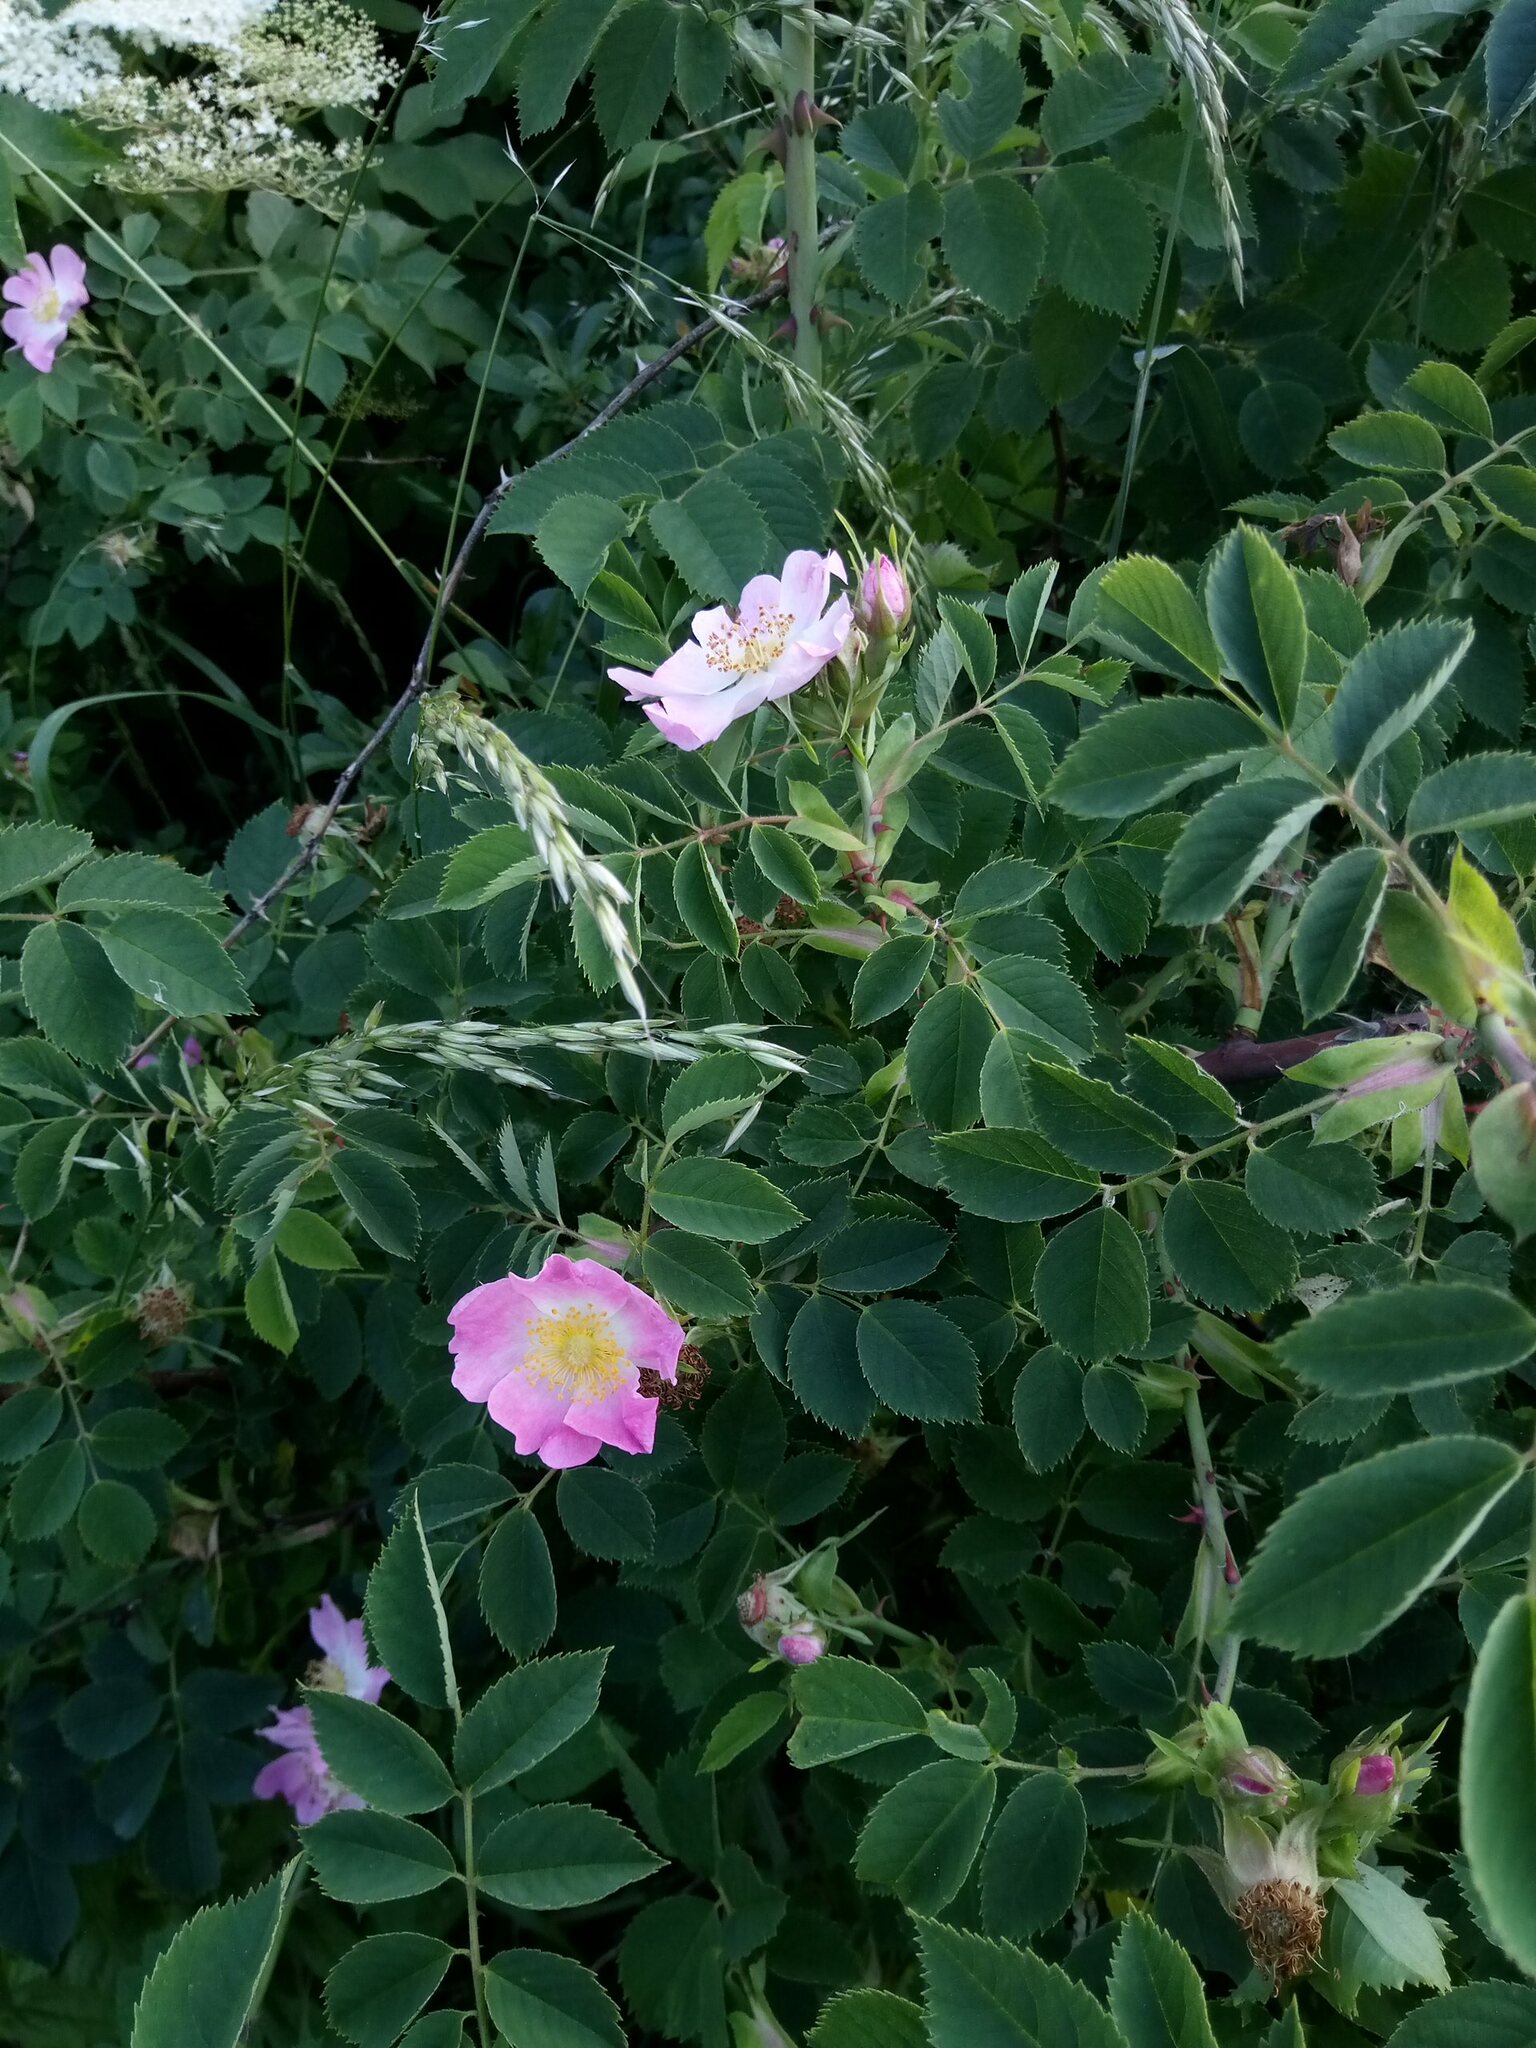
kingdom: Plantae
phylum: Tracheophyta
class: Magnoliopsida
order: Rosales
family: Rosaceae
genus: Rosa
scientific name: Rosa dumalis
